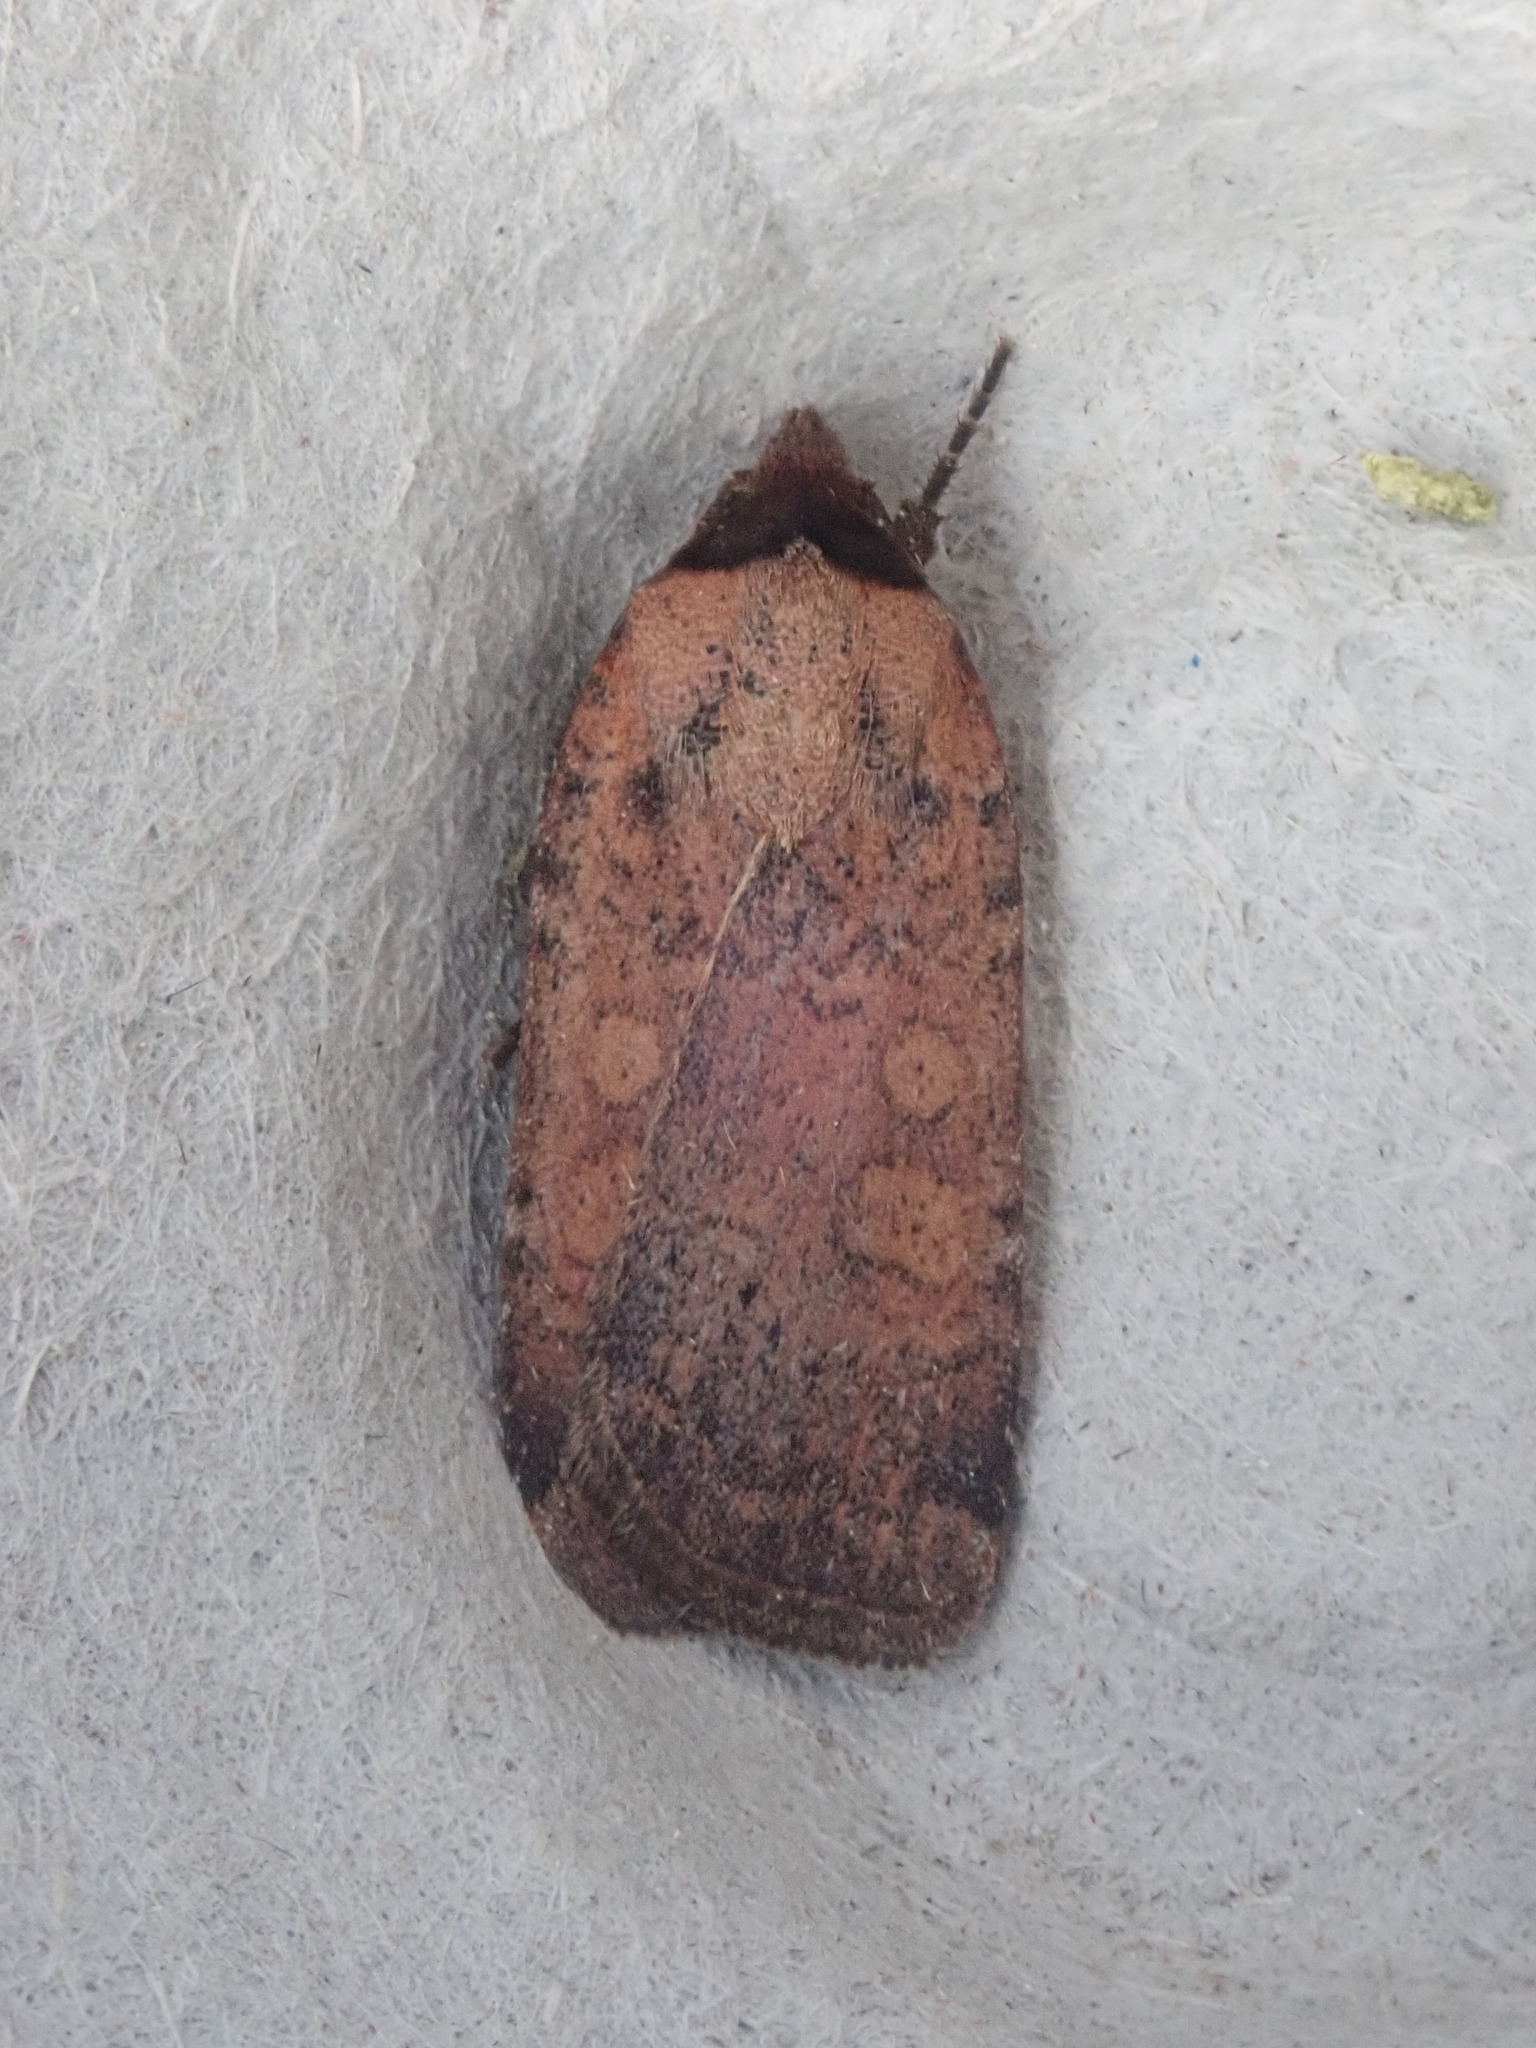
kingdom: Animalia
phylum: Arthropoda
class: Insecta
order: Lepidoptera
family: Noctuidae
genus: Protolampra
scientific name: Protolampra brunneicollis
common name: Brown-collared dart
